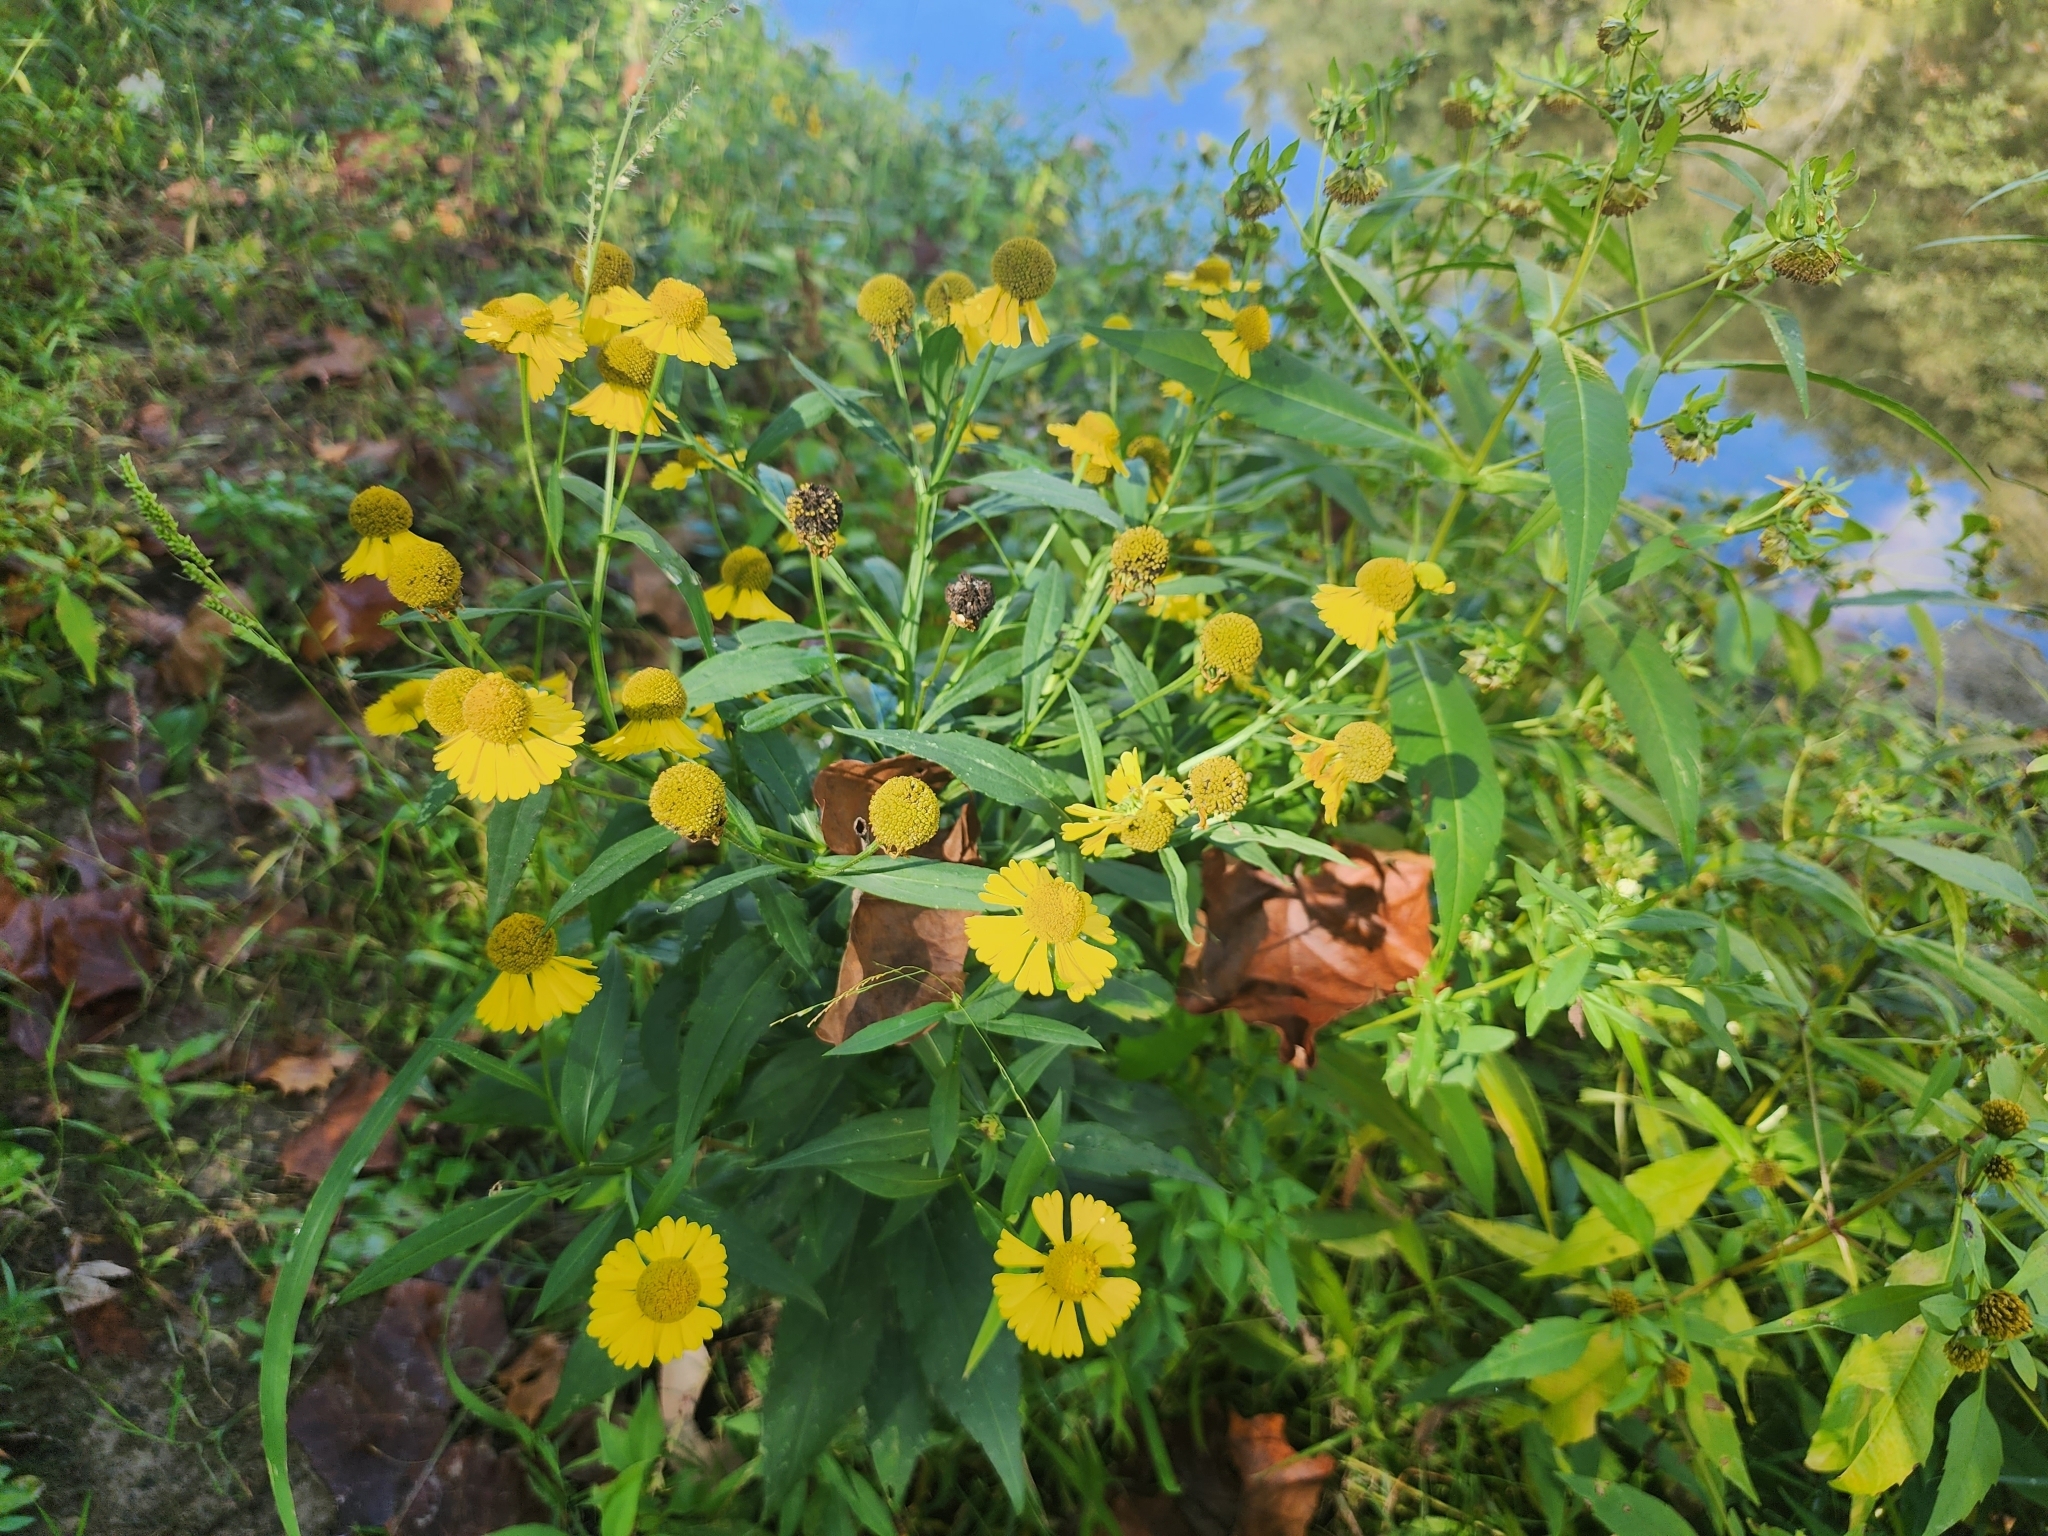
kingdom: Plantae
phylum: Tracheophyta
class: Magnoliopsida
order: Asterales
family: Asteraceae
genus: Helenium
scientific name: Helenium autumnale
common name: Sneezeweed
